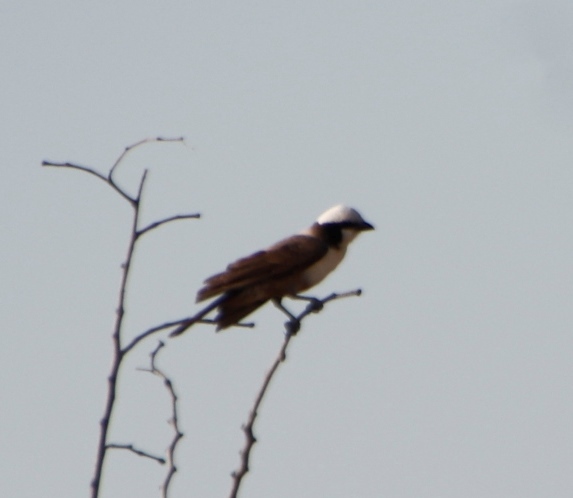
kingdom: Animalia
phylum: Chordata
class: Aves
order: Passeriformes
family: Laniidae
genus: Eurocephalus
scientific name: Eurocephalus anguitimens
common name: Southern white-crowned shrike
